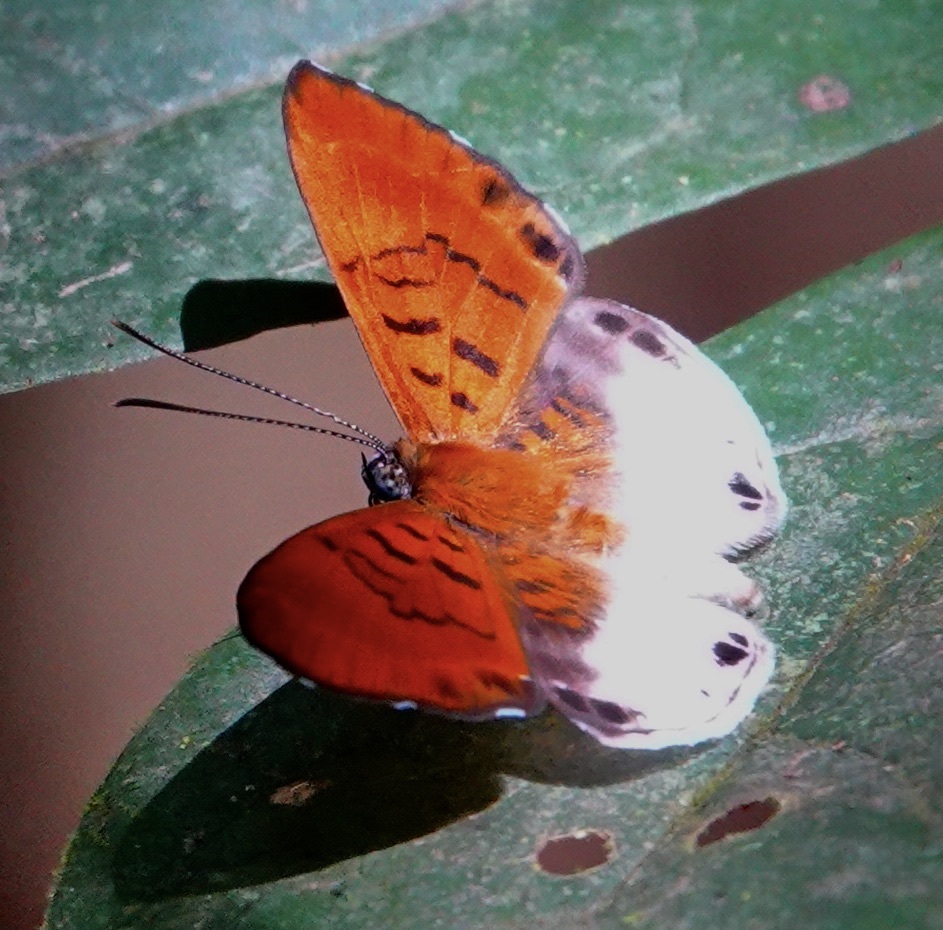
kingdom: Animalia
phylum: Arthropoda
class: Insecta
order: Lepidoptera
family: Riodinidae
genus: Echenais
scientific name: Echenais penthea
